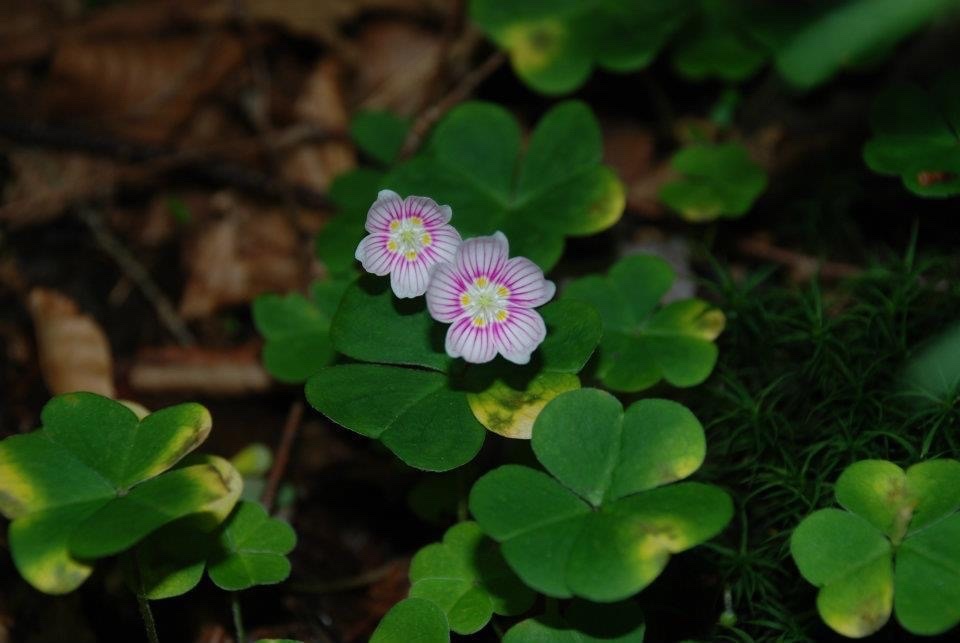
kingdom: Plantae
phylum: Tracheophyta
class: Magnoliopsida
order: Oxalidales
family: Oxalidaceae
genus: Oxalis
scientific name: Oxalis montana
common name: American wood-sorrel
